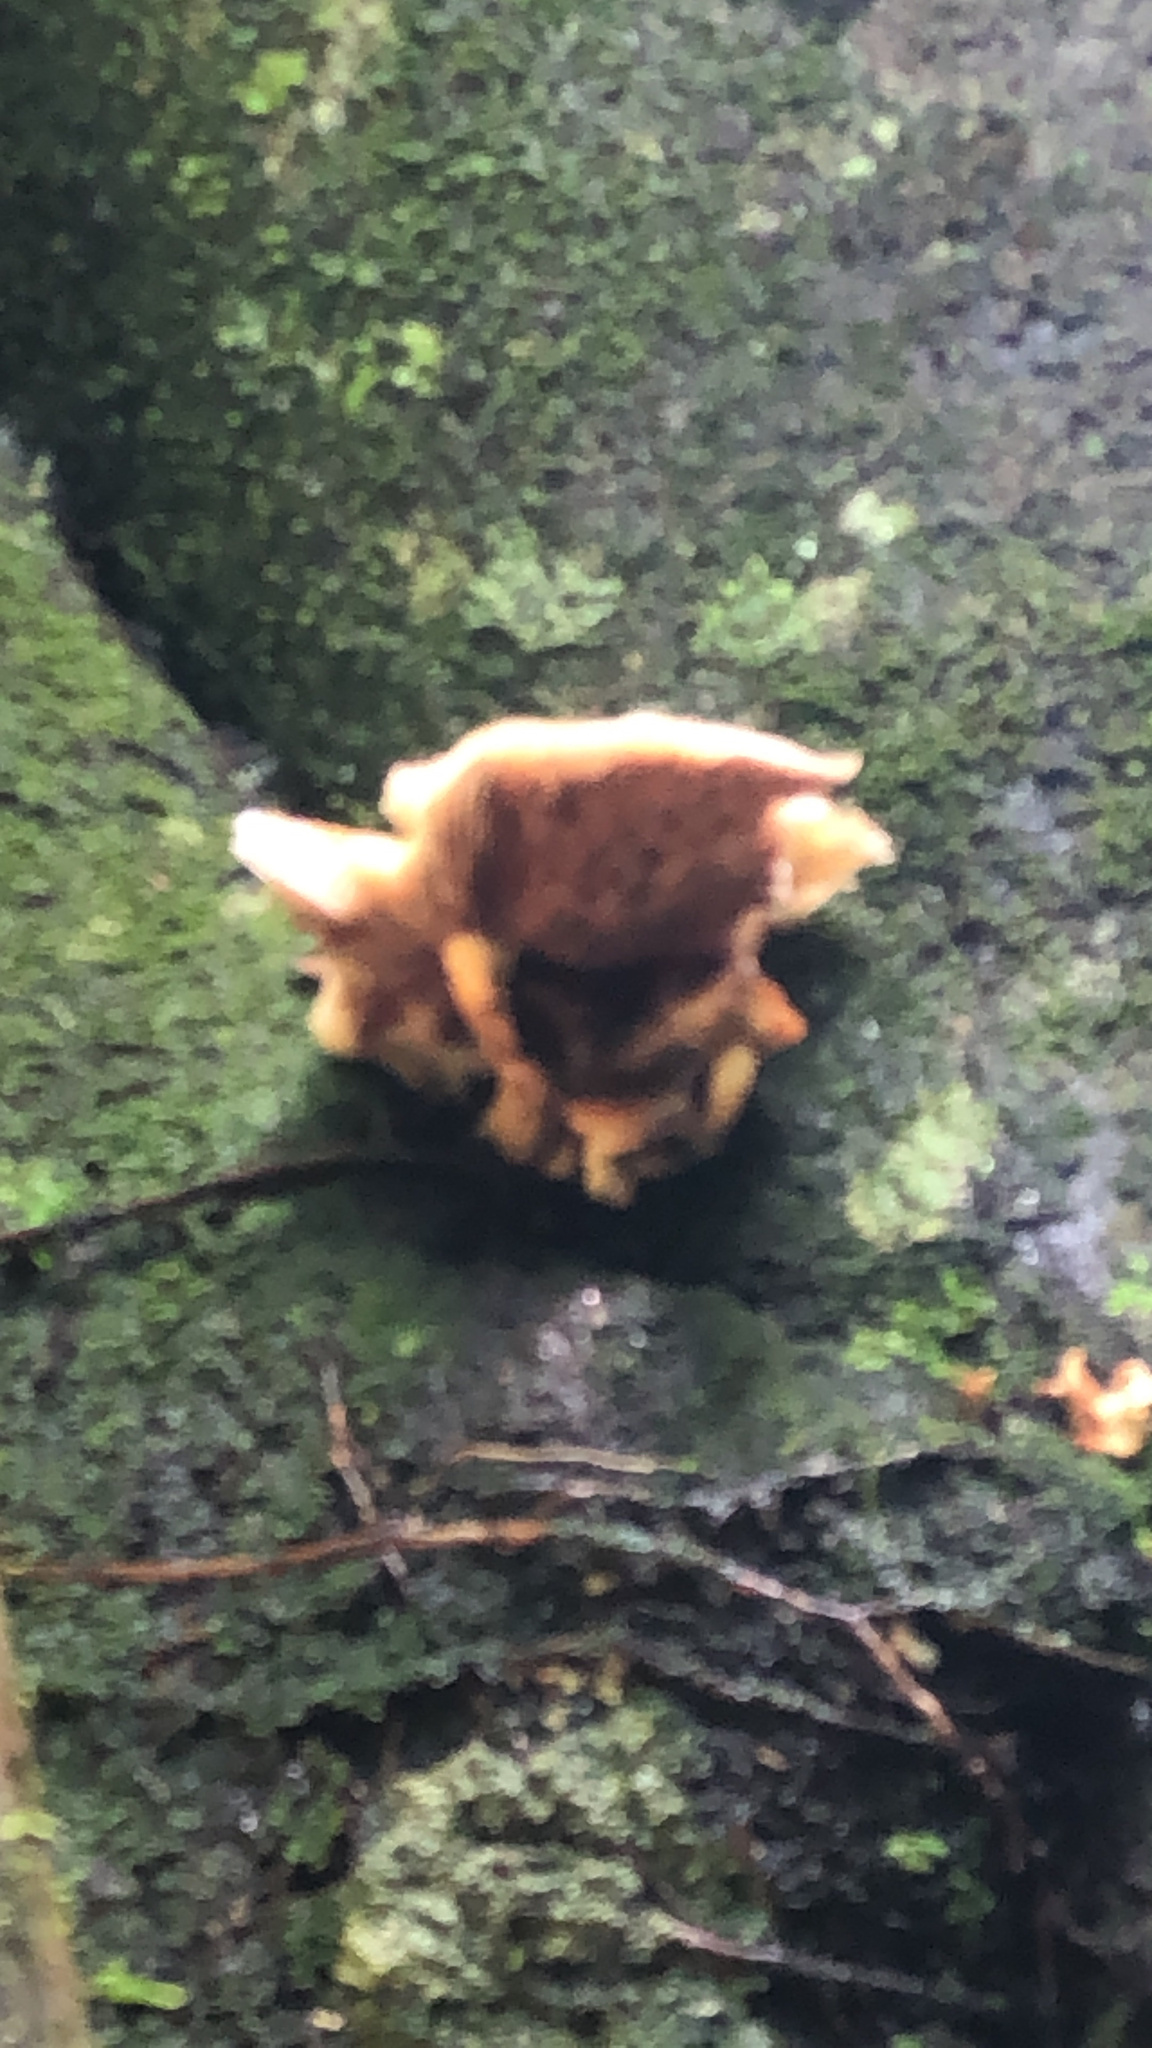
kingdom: Fungi
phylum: Basidiomycota
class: Agaricomycetes
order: Agaricales
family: Tubariaceae
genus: Cyclocybe
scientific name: Cyclocybe parasitica
